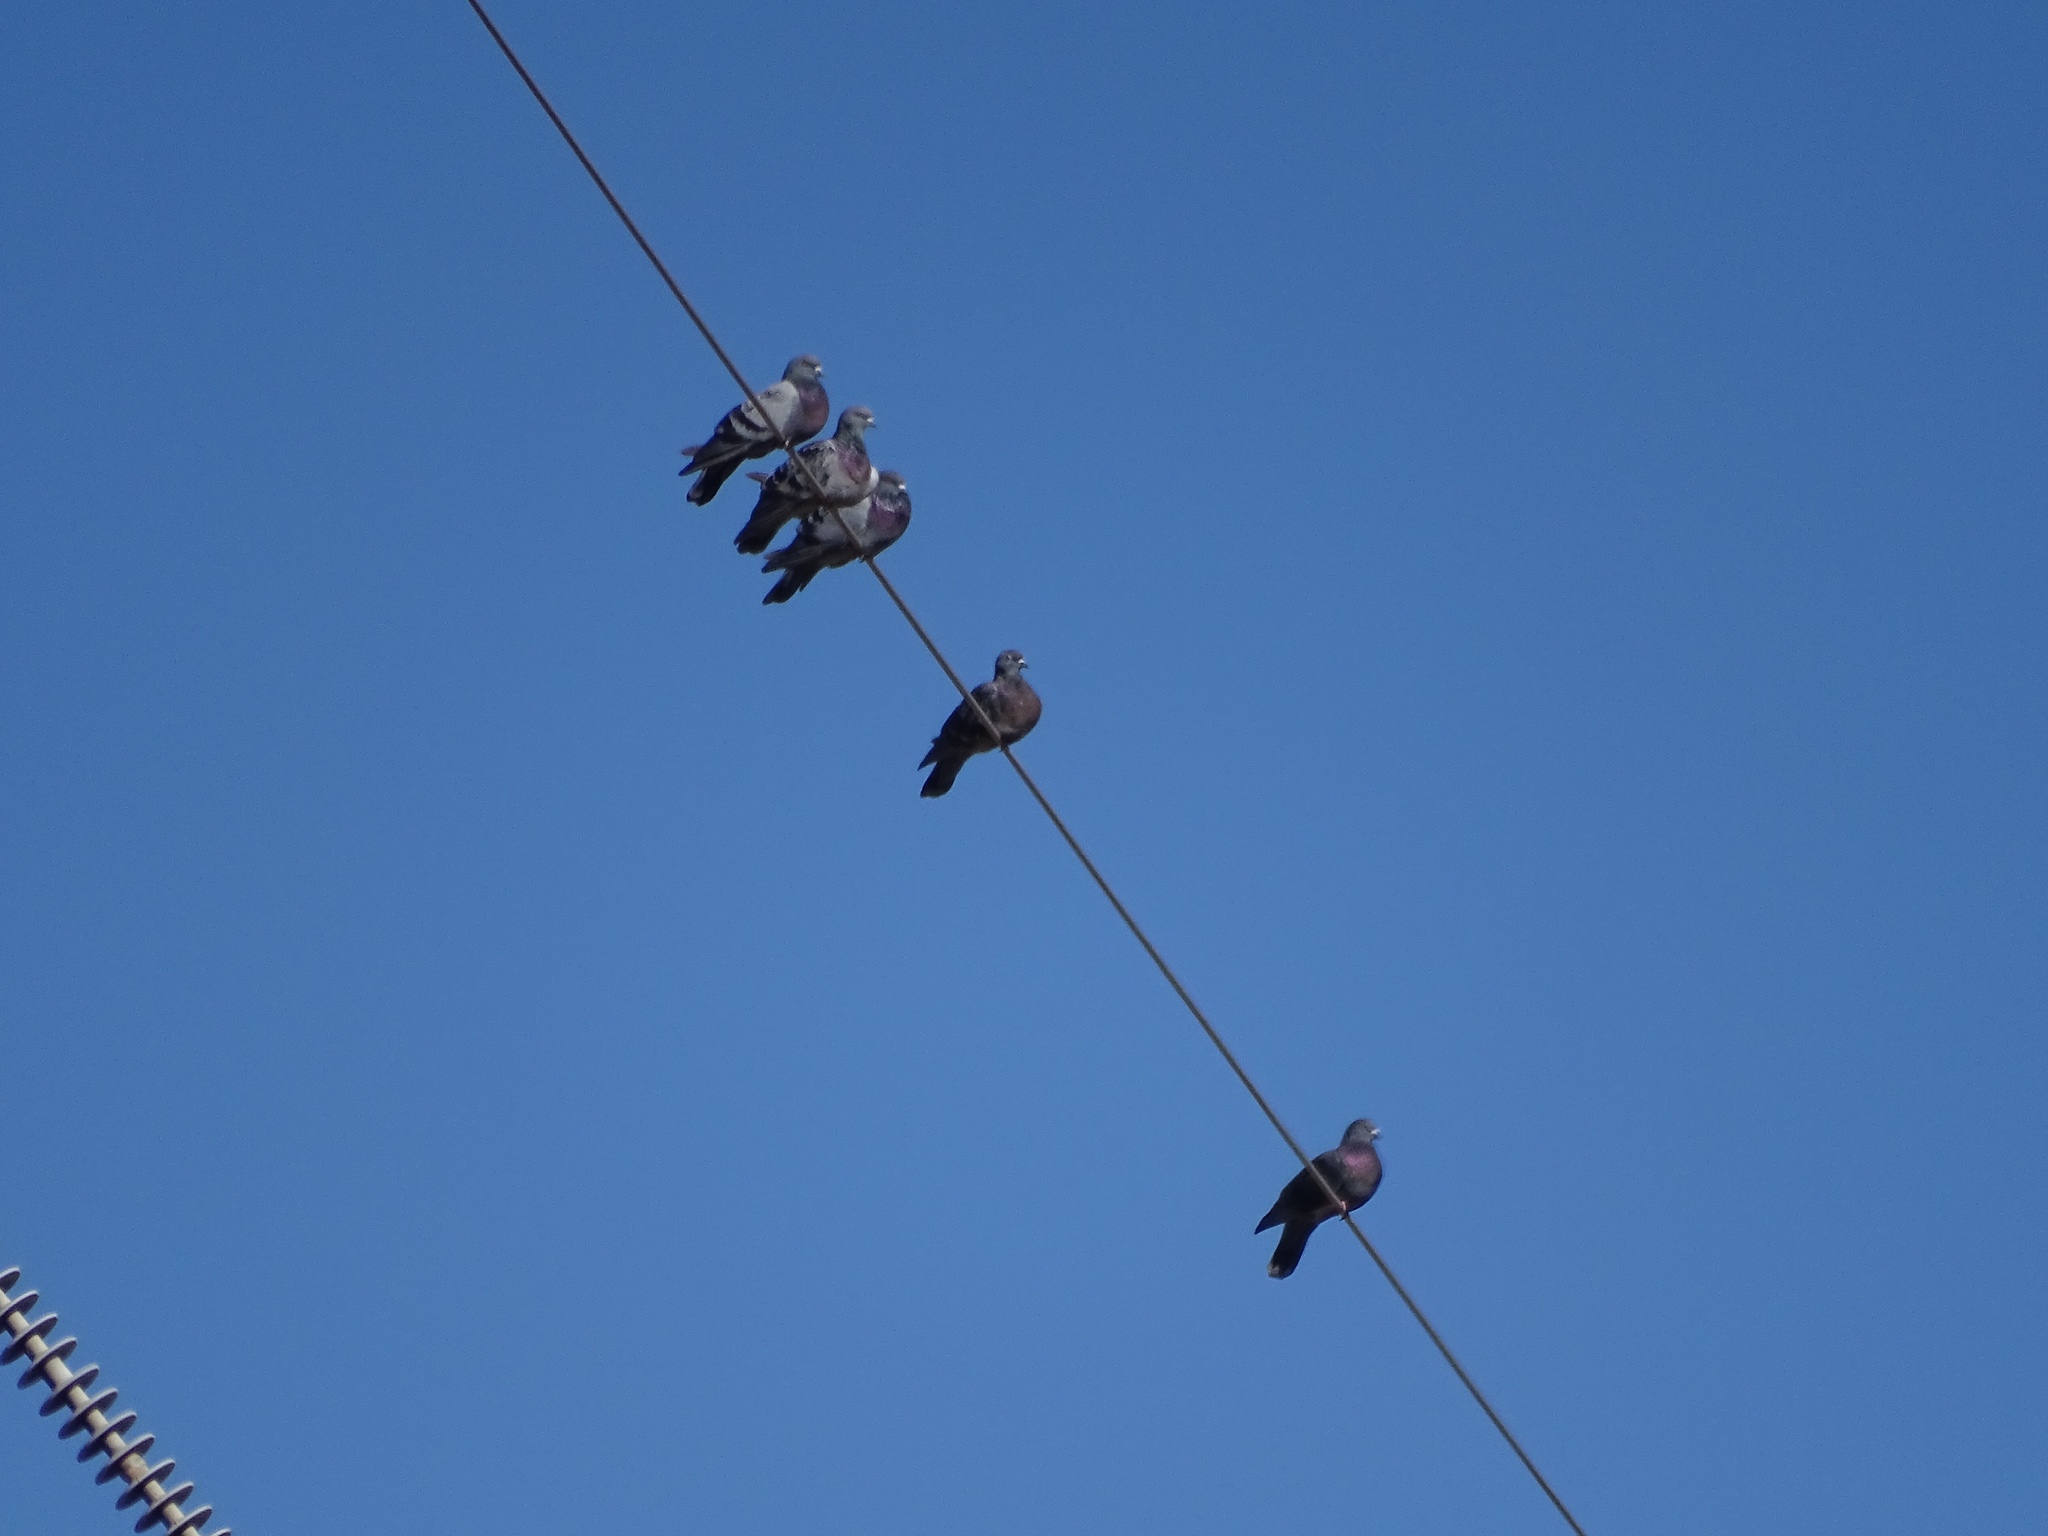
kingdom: Animalia
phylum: Chordata
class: Aves
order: Columbiformes
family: Columbidae
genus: Columba
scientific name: Columba livia
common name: Rock pigeon
